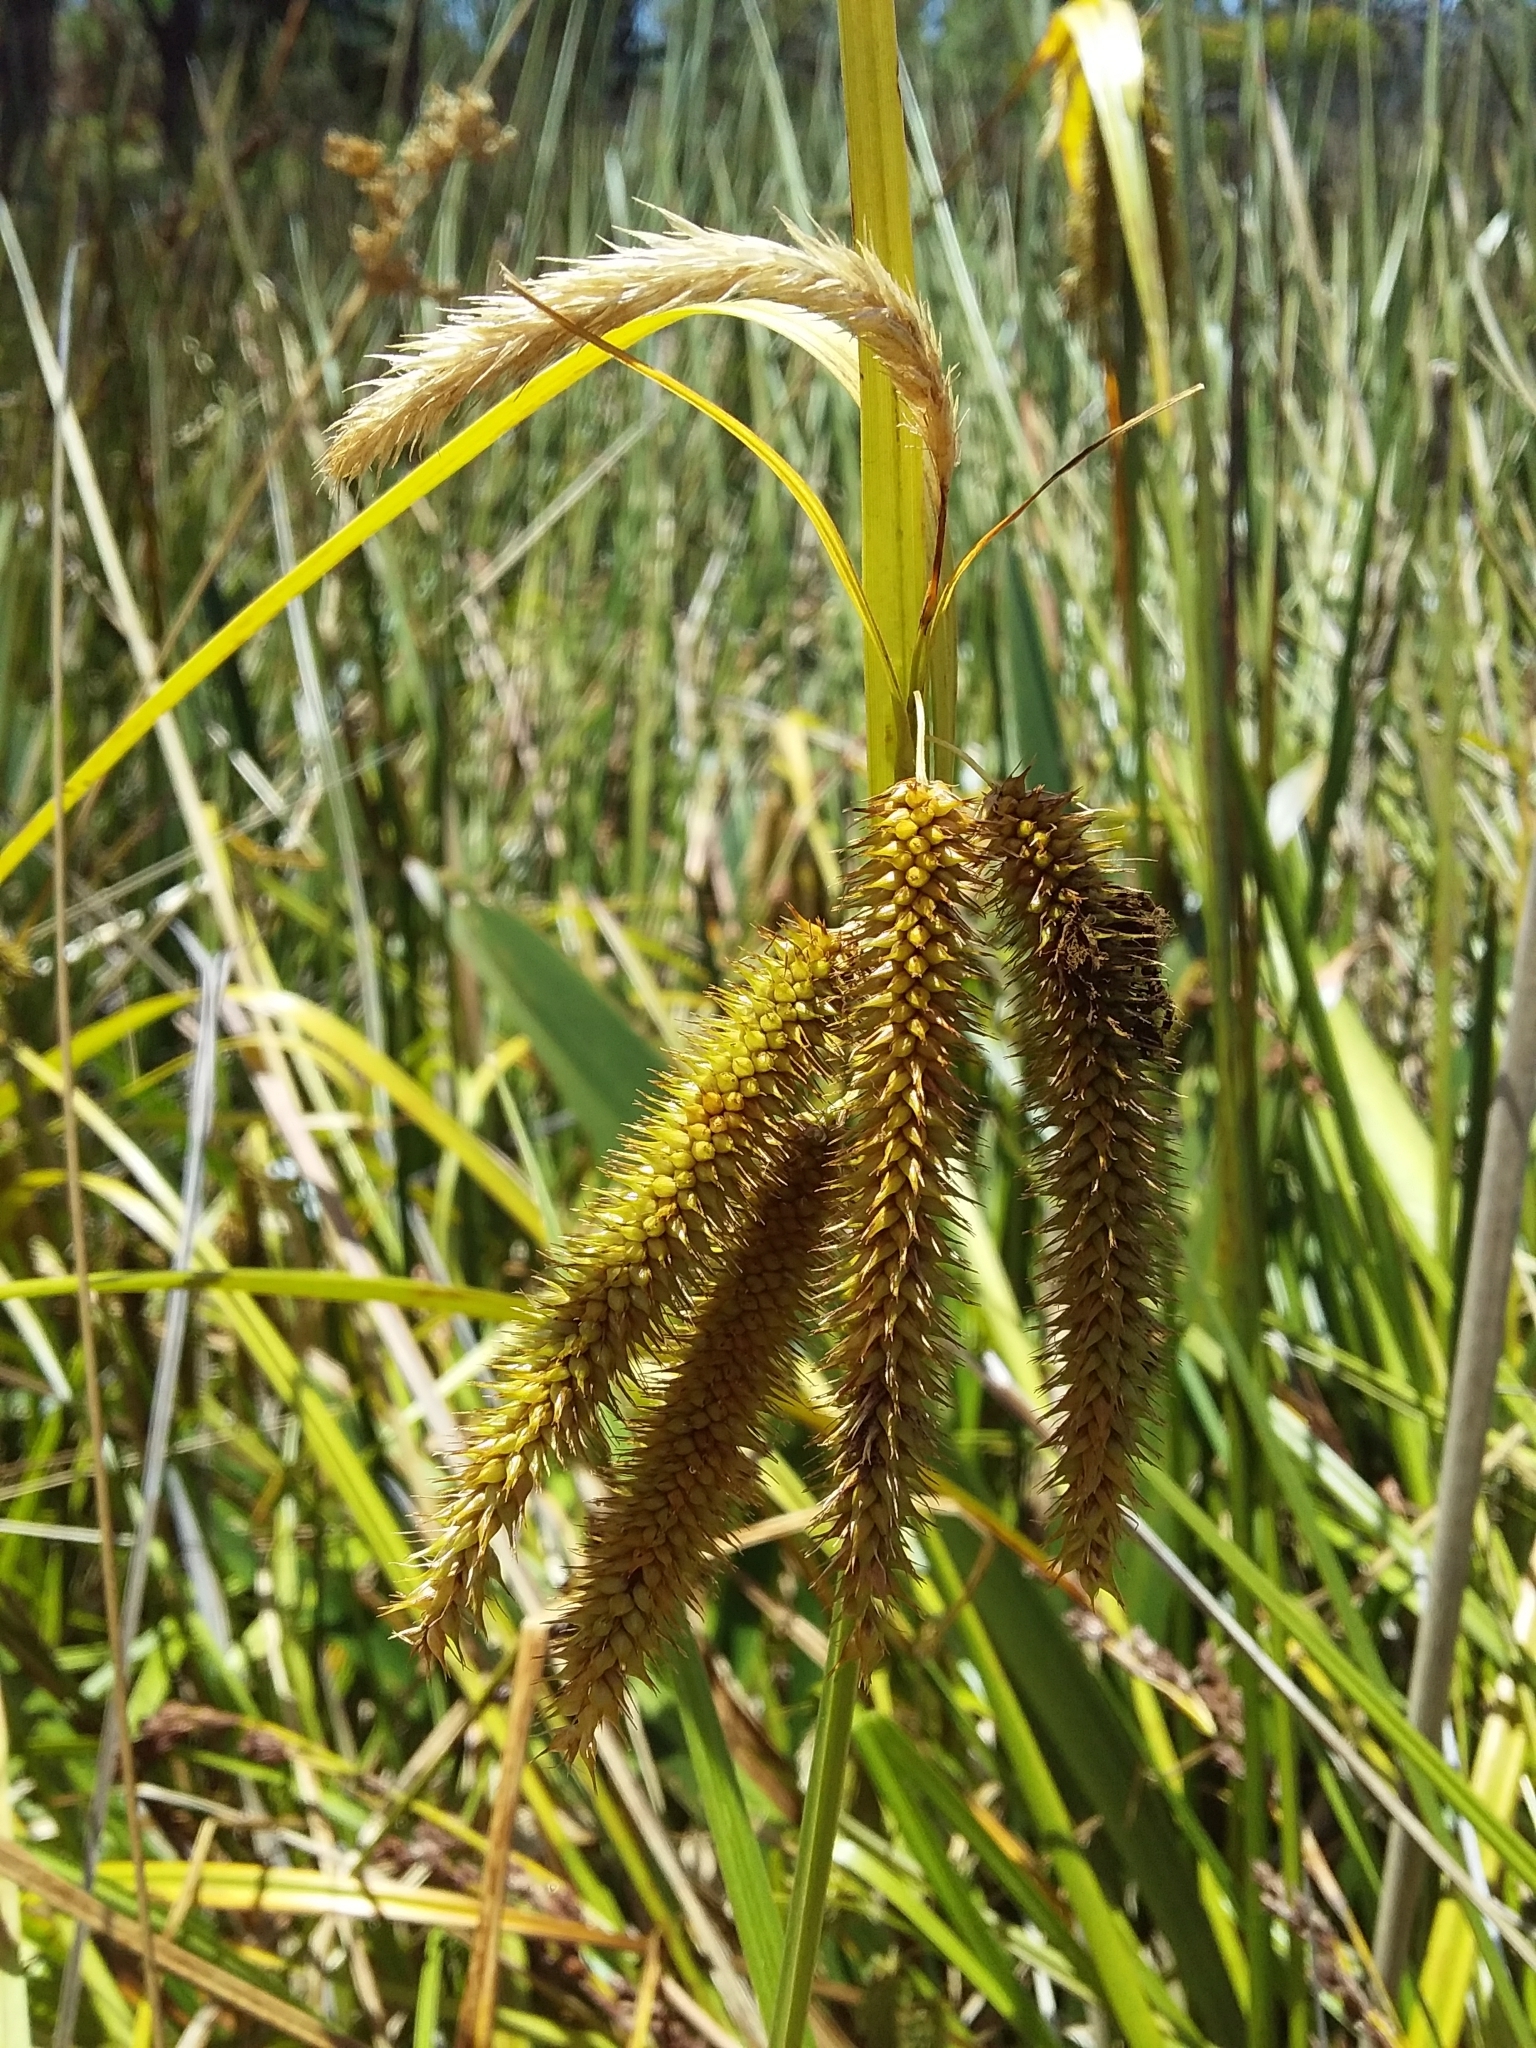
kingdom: Plantae
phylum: Tracheophyta
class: Liliopsida
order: Poales
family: Cyperaceae
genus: Carex
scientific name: Carex fascicularis
